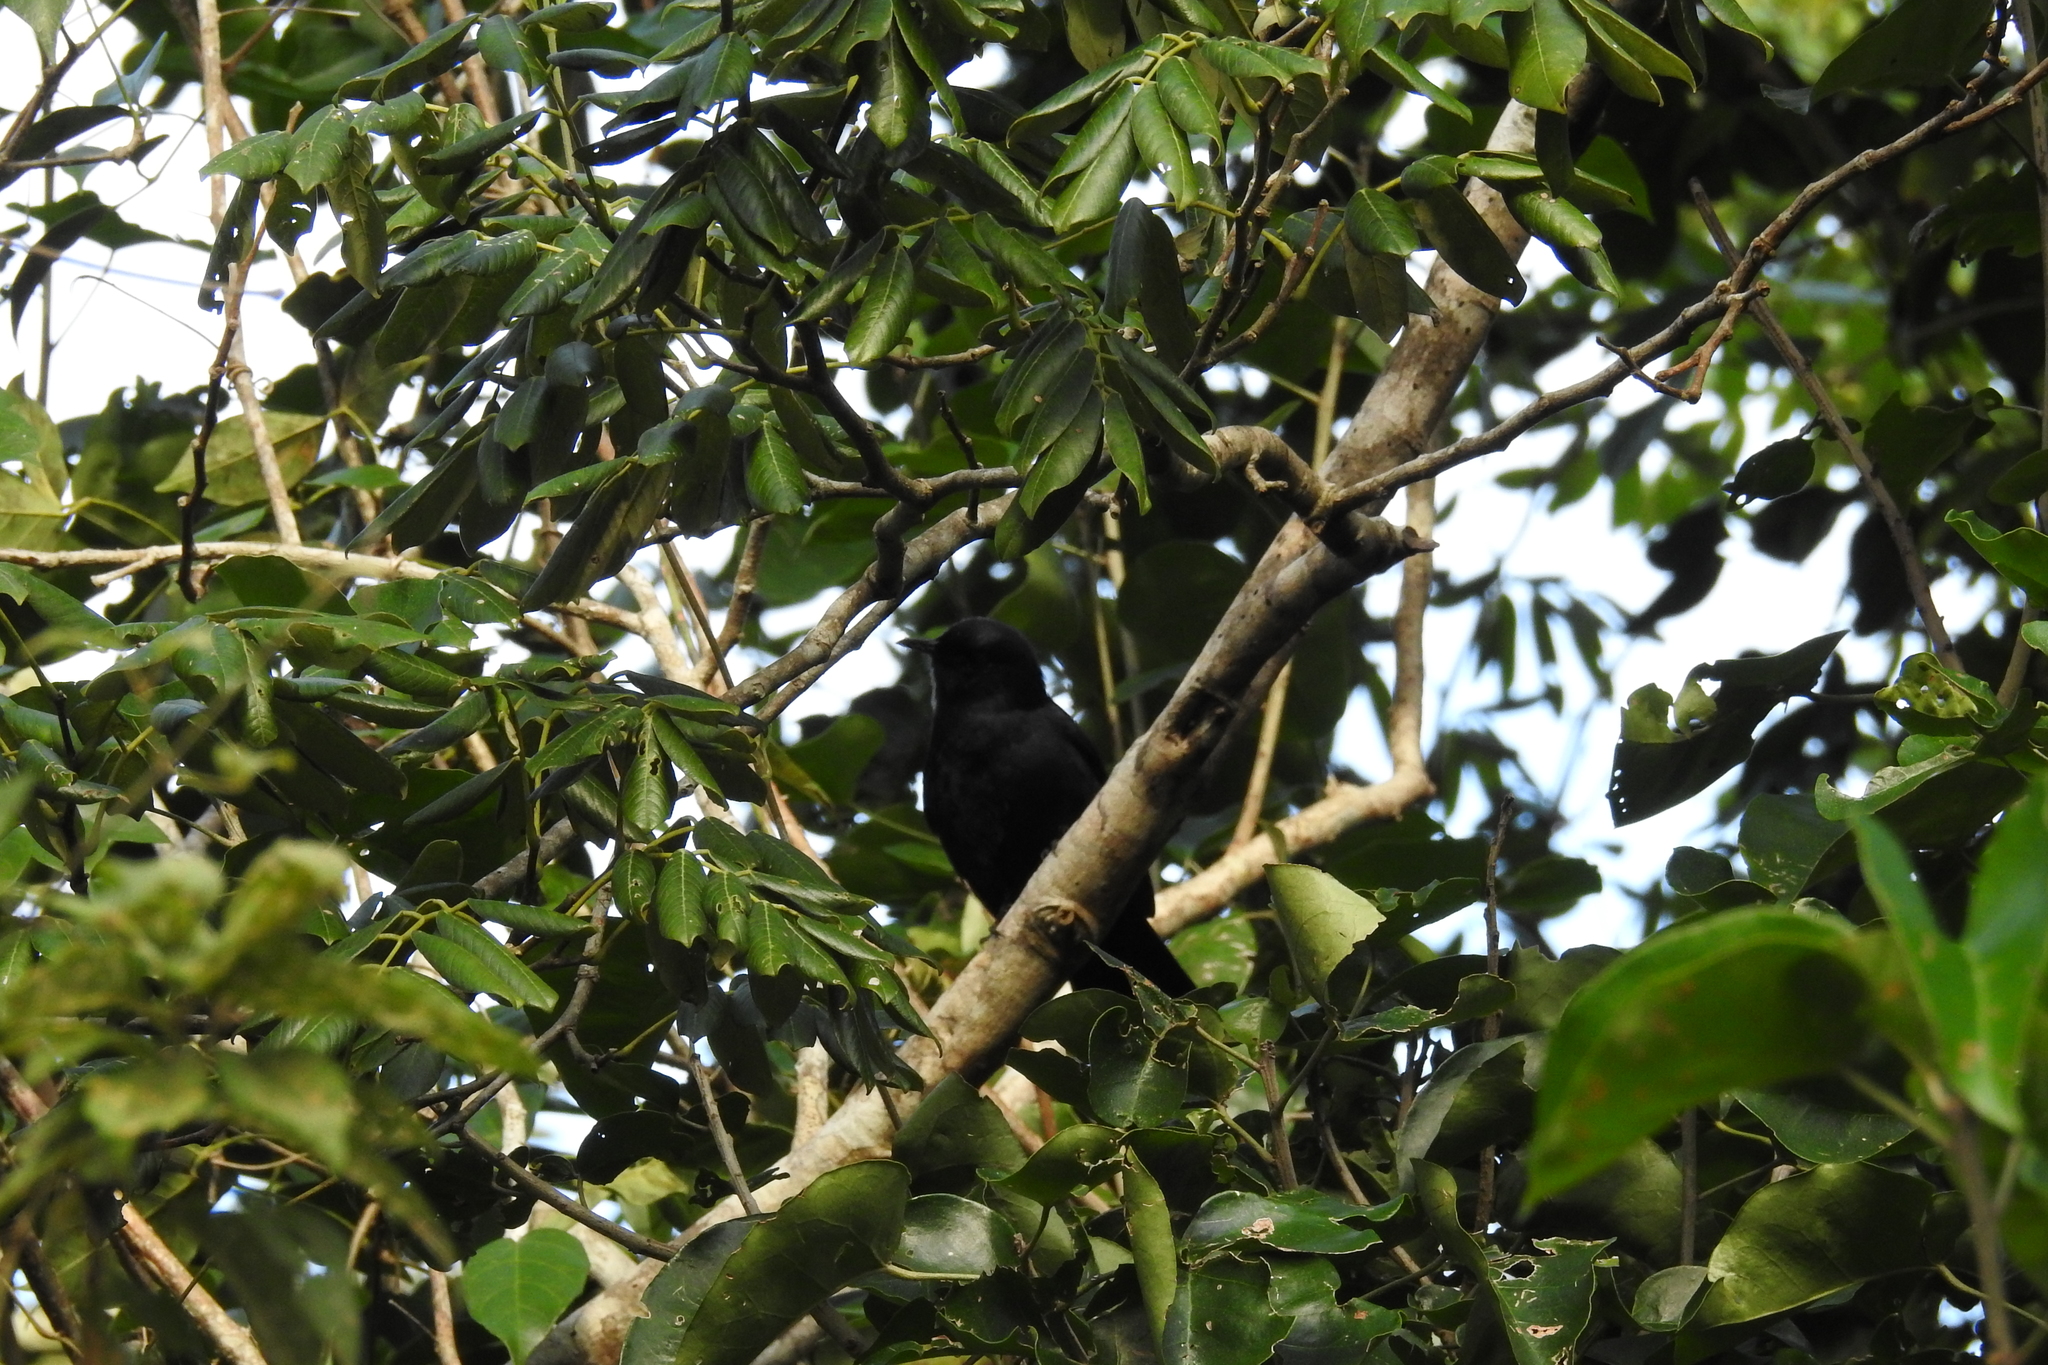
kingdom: Animalia
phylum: Chordata
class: Aves
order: Passeriformes
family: Mimidae
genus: Melanoptila
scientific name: Melanoptila glabrirostris
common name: Black catbird
